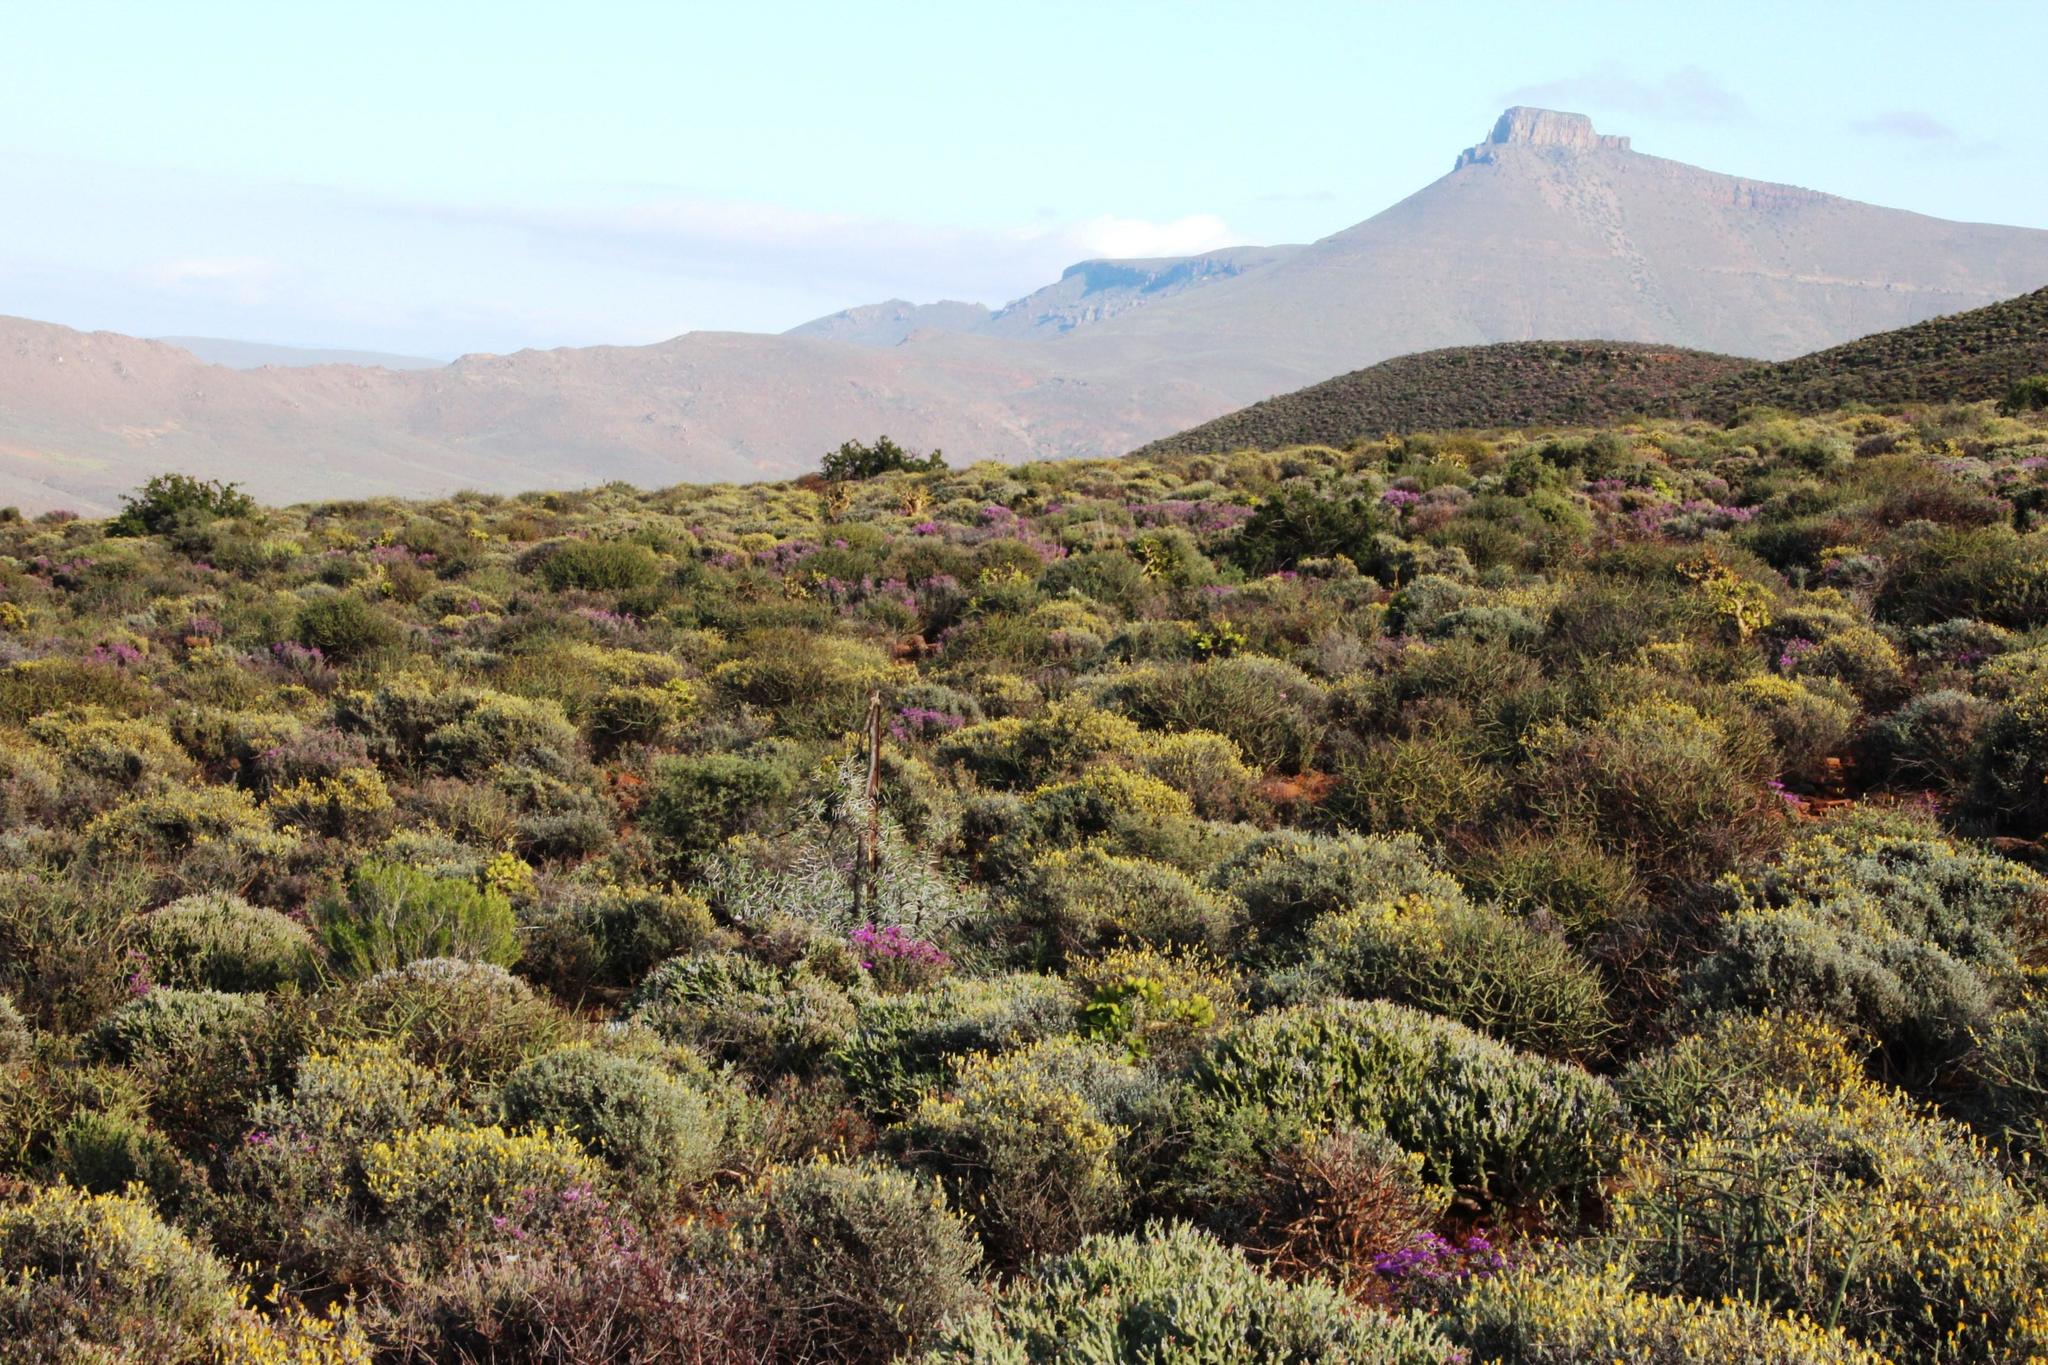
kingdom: Plantae
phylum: Tracheophyta
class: Magnoliopsida
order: Fabales
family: Fabaceae
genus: Vachellia
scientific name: Vachellia karroo
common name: Sweet thorn
